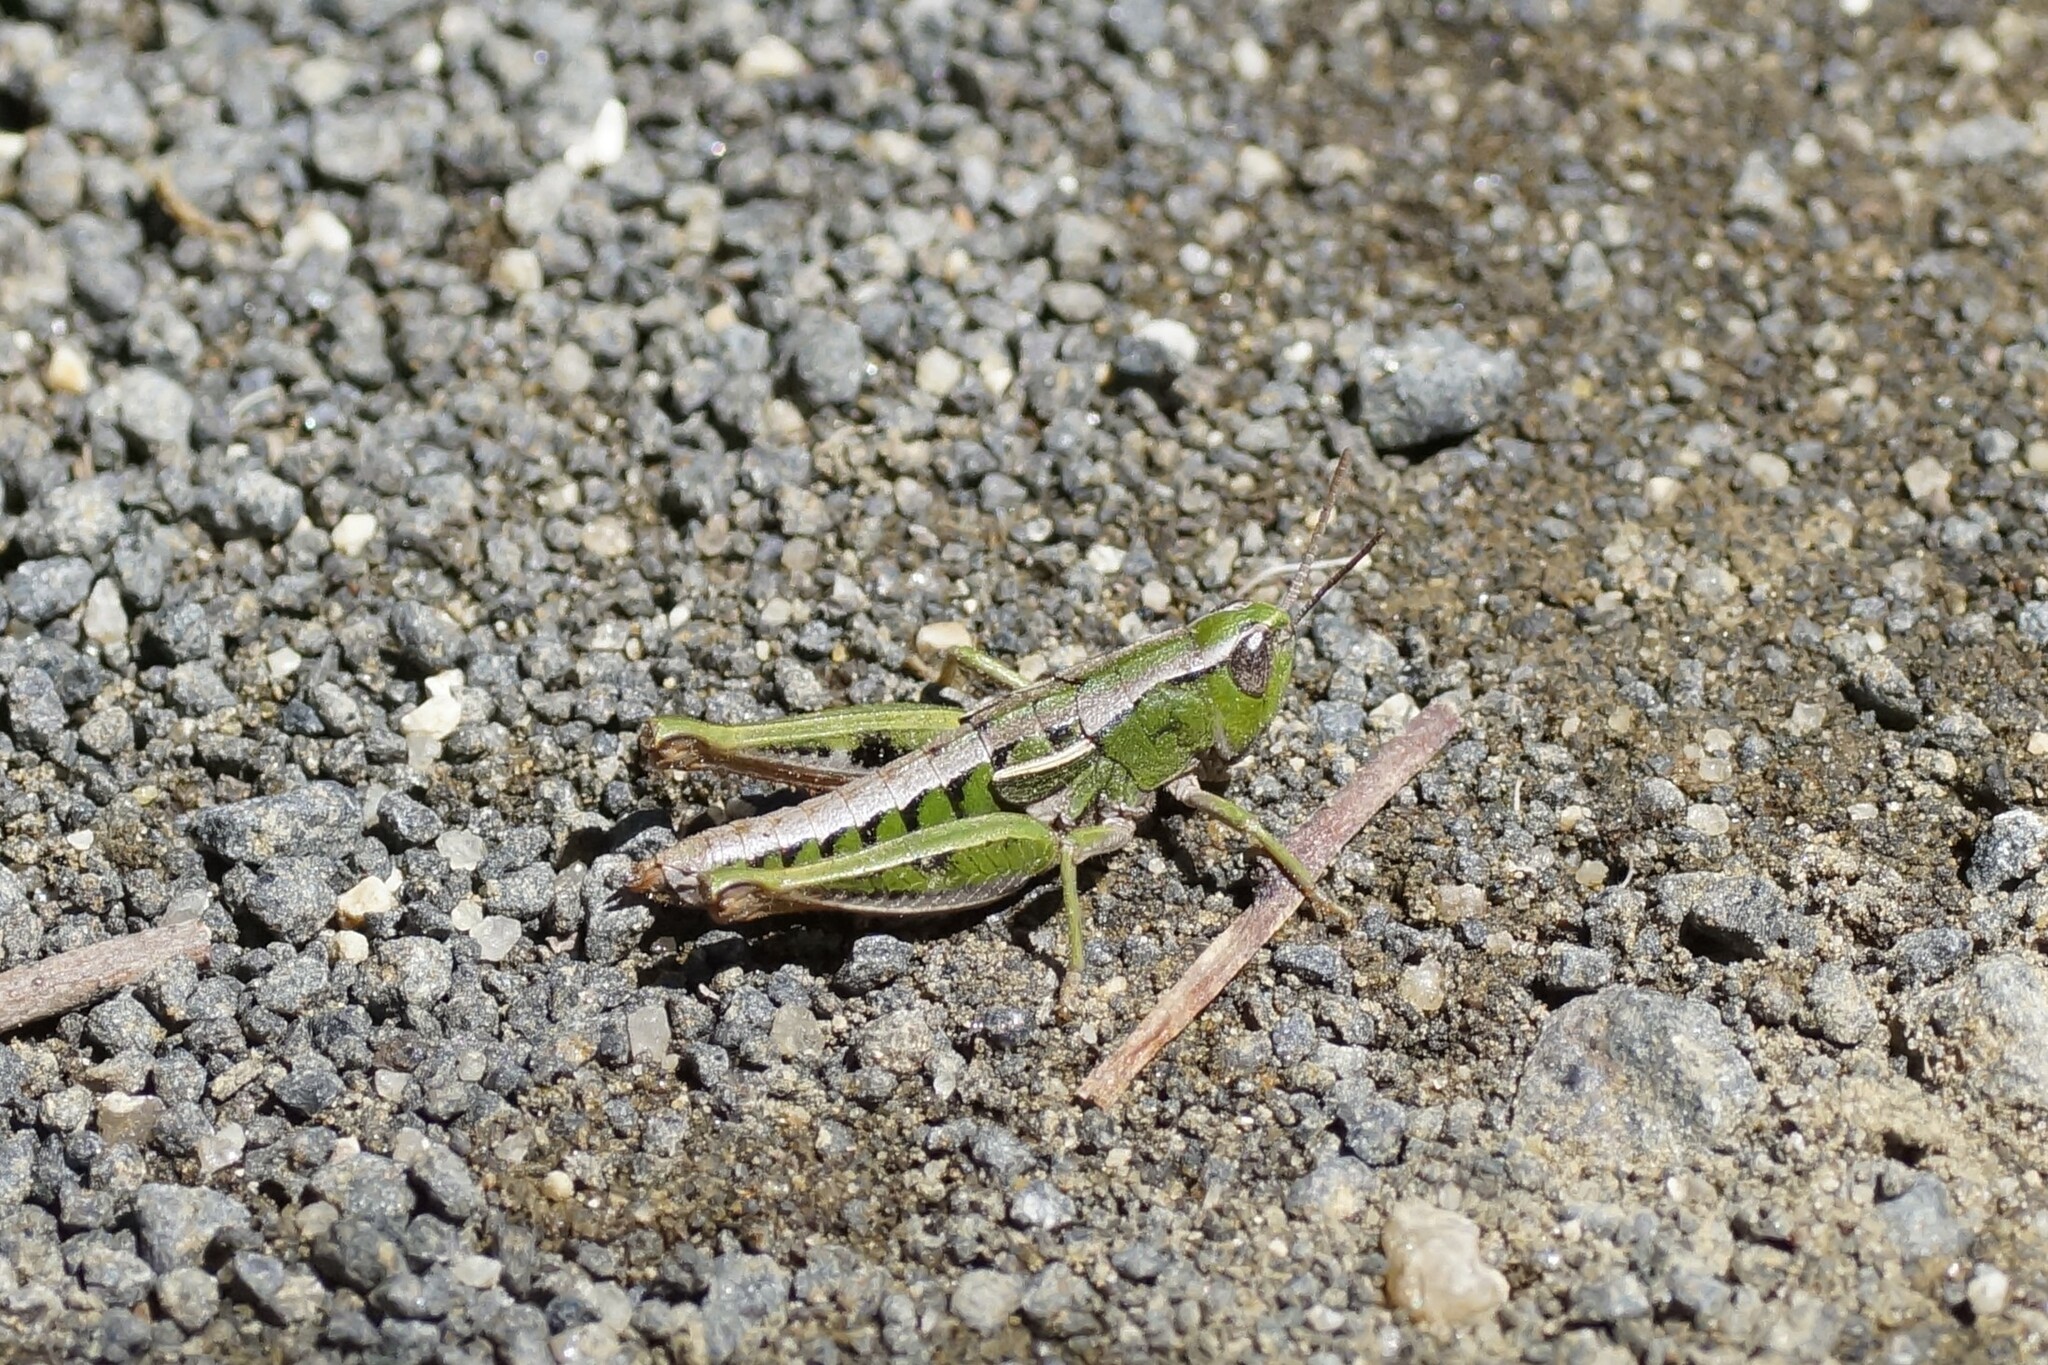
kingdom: Animalia
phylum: Arthropoda
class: Insecta
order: Orthoptera
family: Acrididae
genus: Russalpia
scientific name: Russalpia albertisi
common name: Tassie hopper
